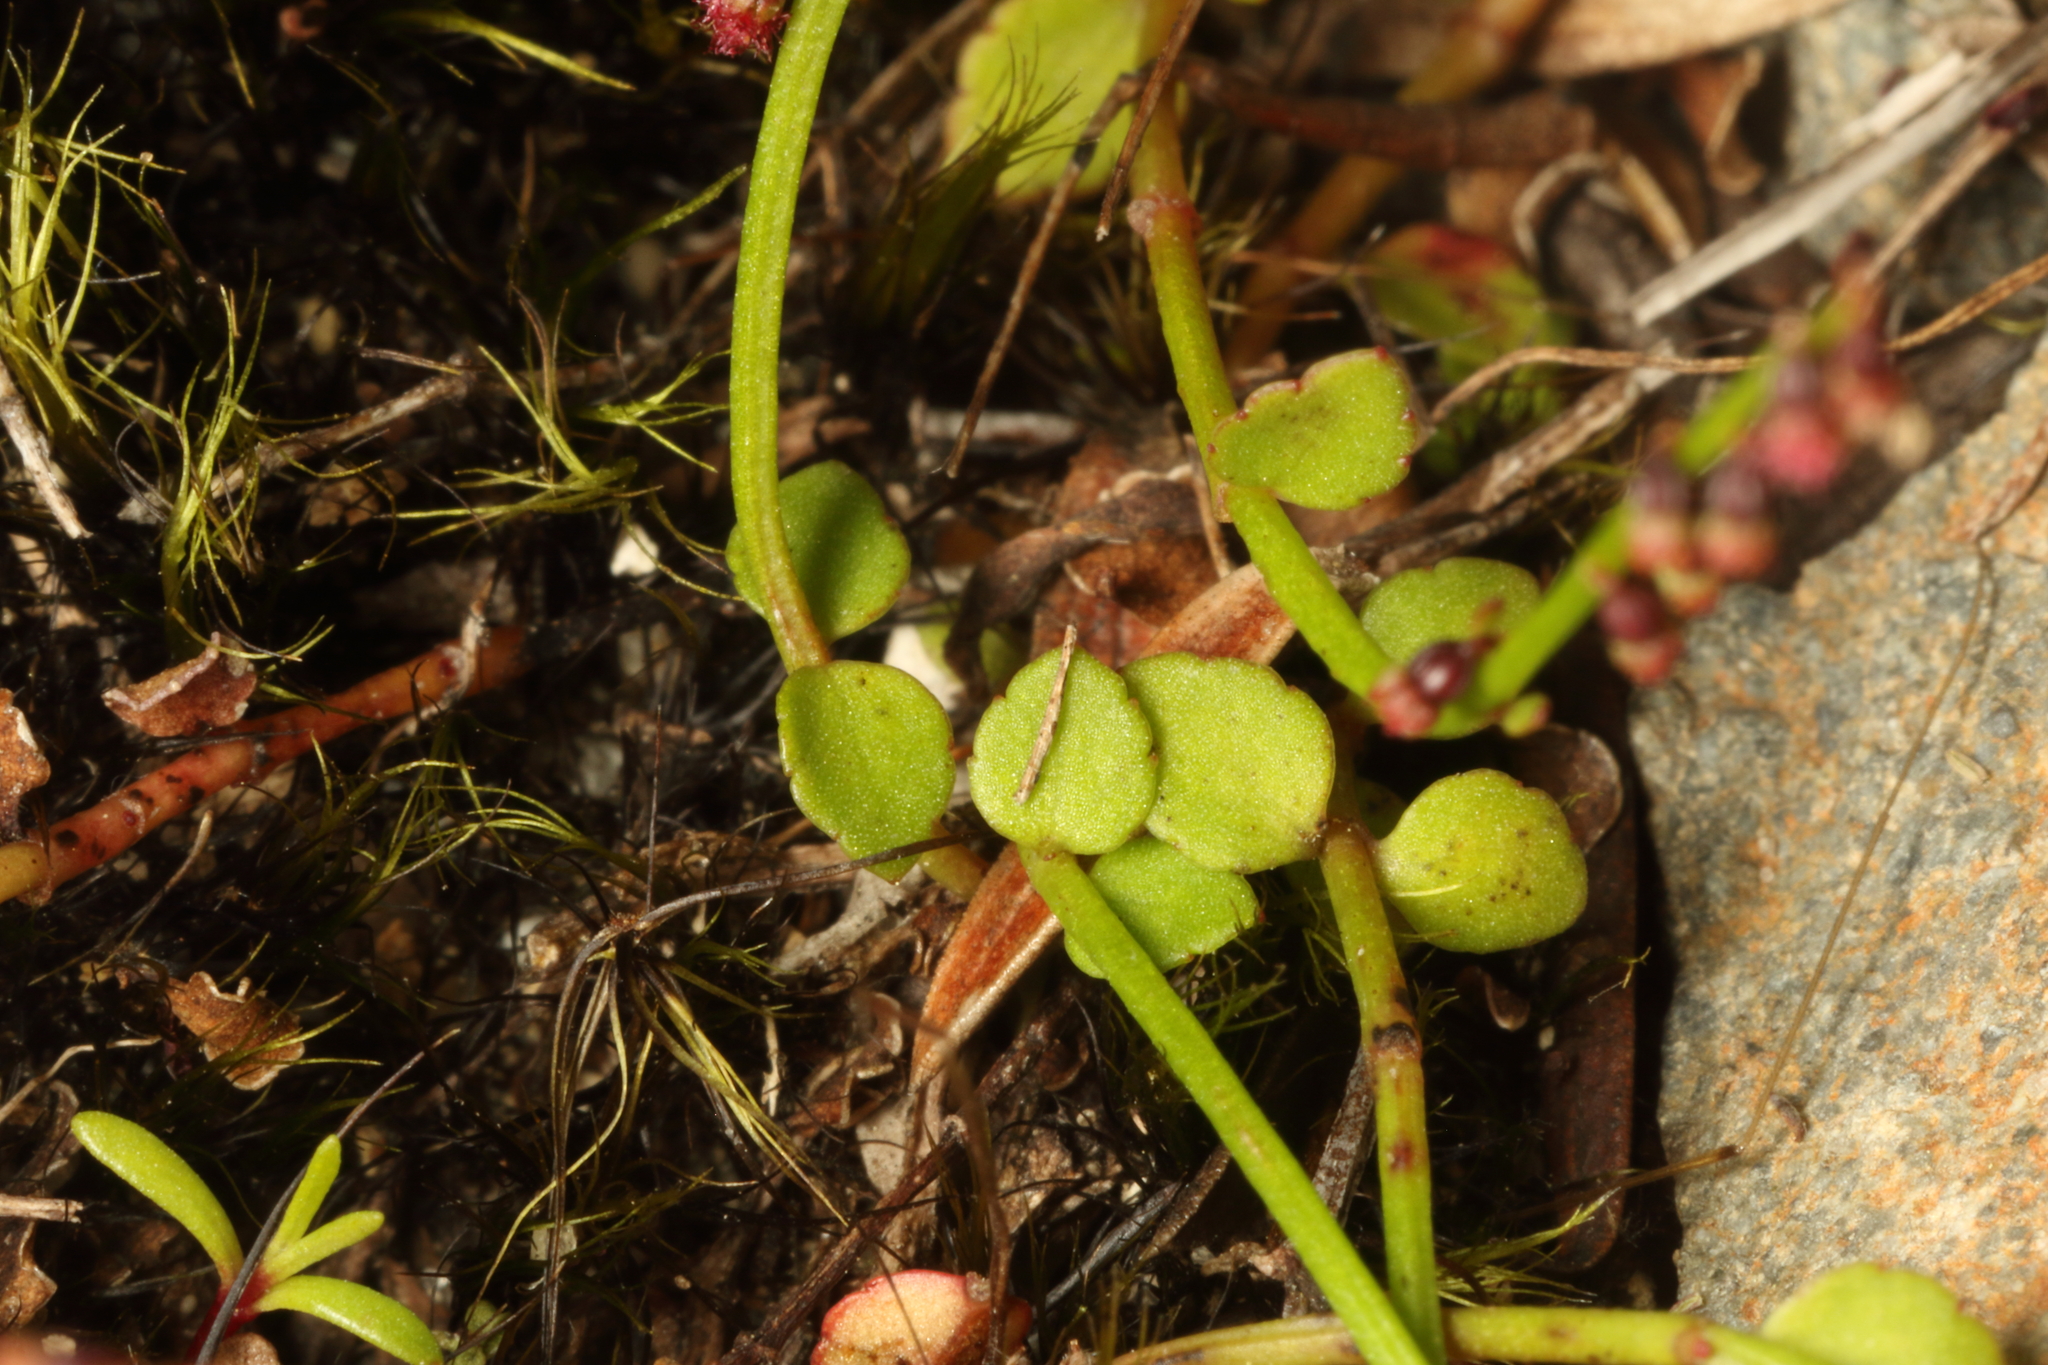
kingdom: Plantae
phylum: Tracheophyta
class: Magnoliopsida
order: Saxifragales
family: Haloragaceae
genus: Gonocarpus
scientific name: Gonocarpus micranthus
